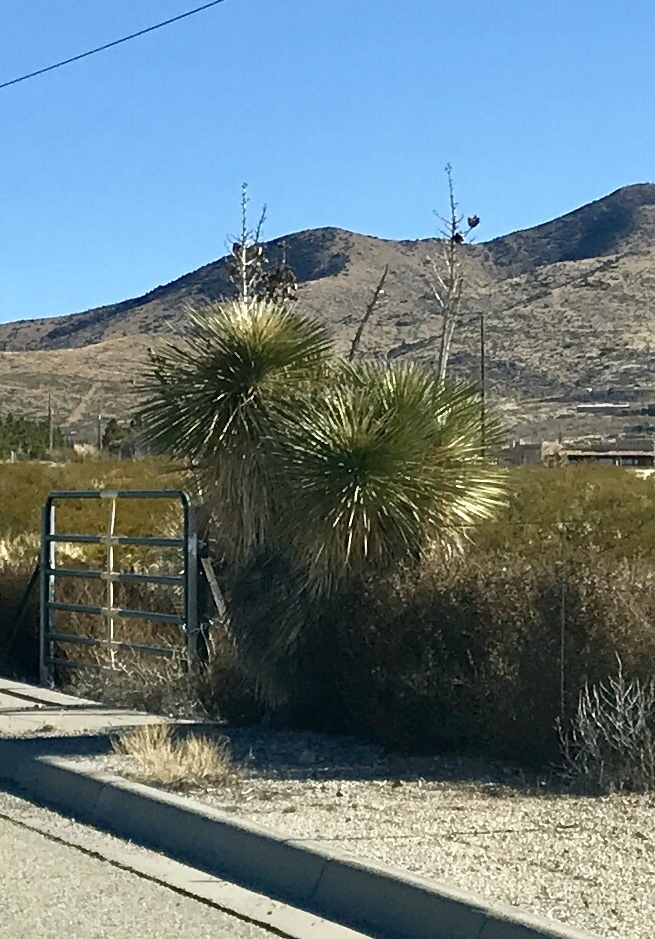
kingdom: Plantae
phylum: Tracheophyta
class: Liliopsida
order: Asparagales
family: Asparagaceae
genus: Yucca
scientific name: Yucca elata
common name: Palmella
